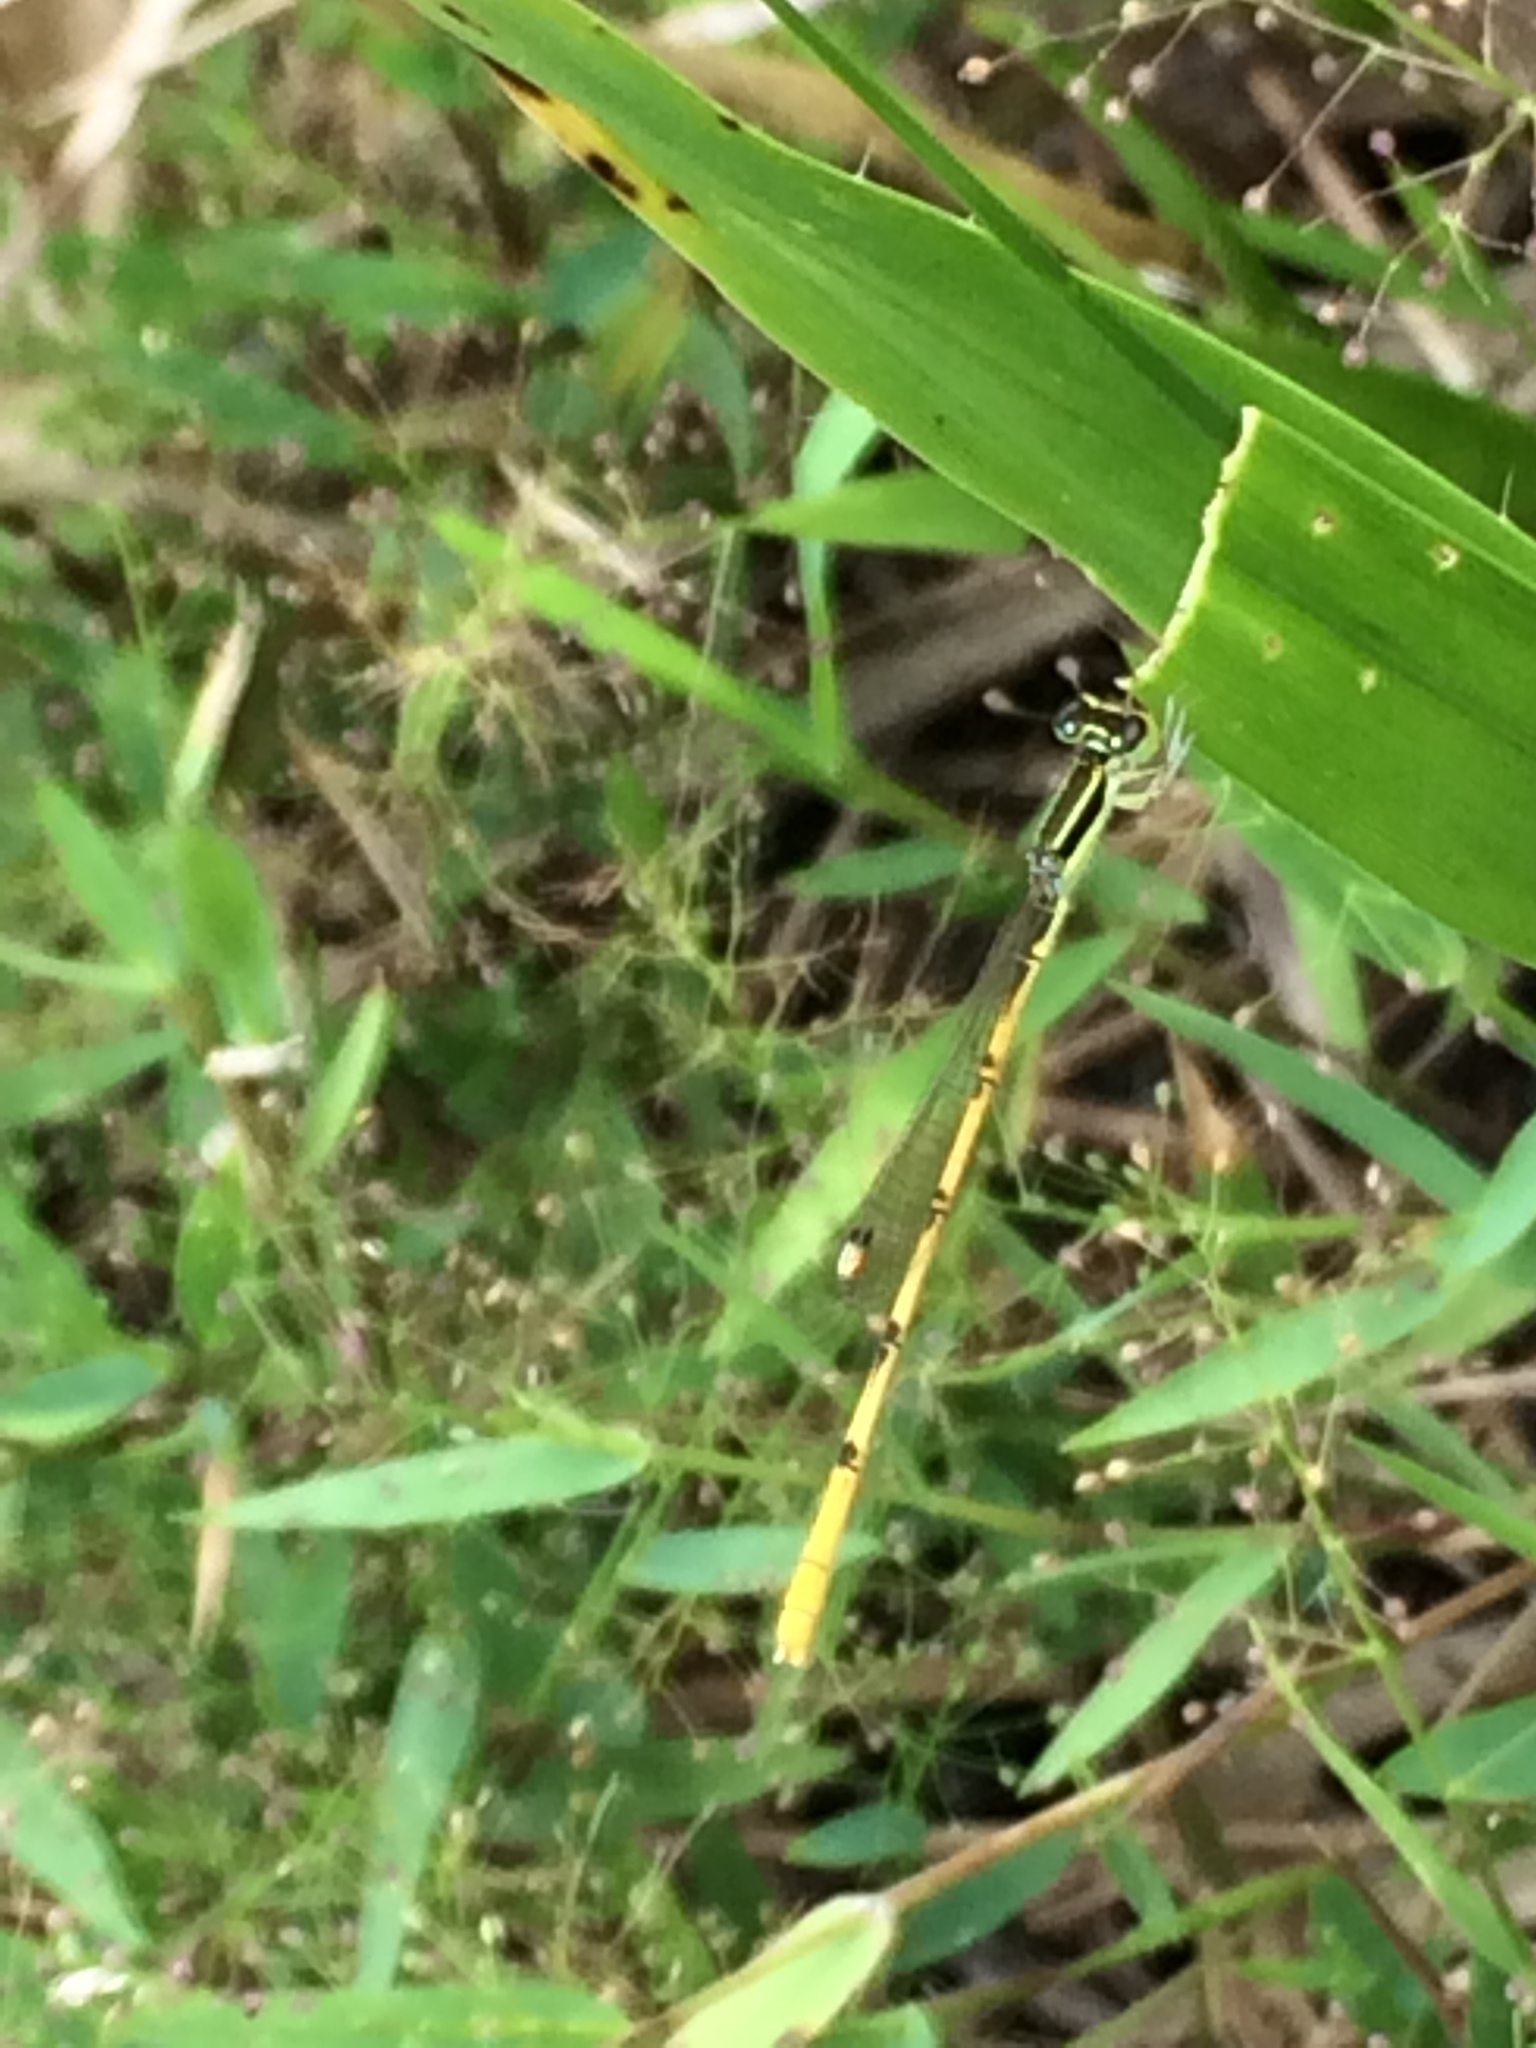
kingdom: Animalia
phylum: Arthropoda
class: Insecta
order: Odonata
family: Coenagrionidae
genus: Ischnura
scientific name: Ischnura hastata
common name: Citrine forktail
